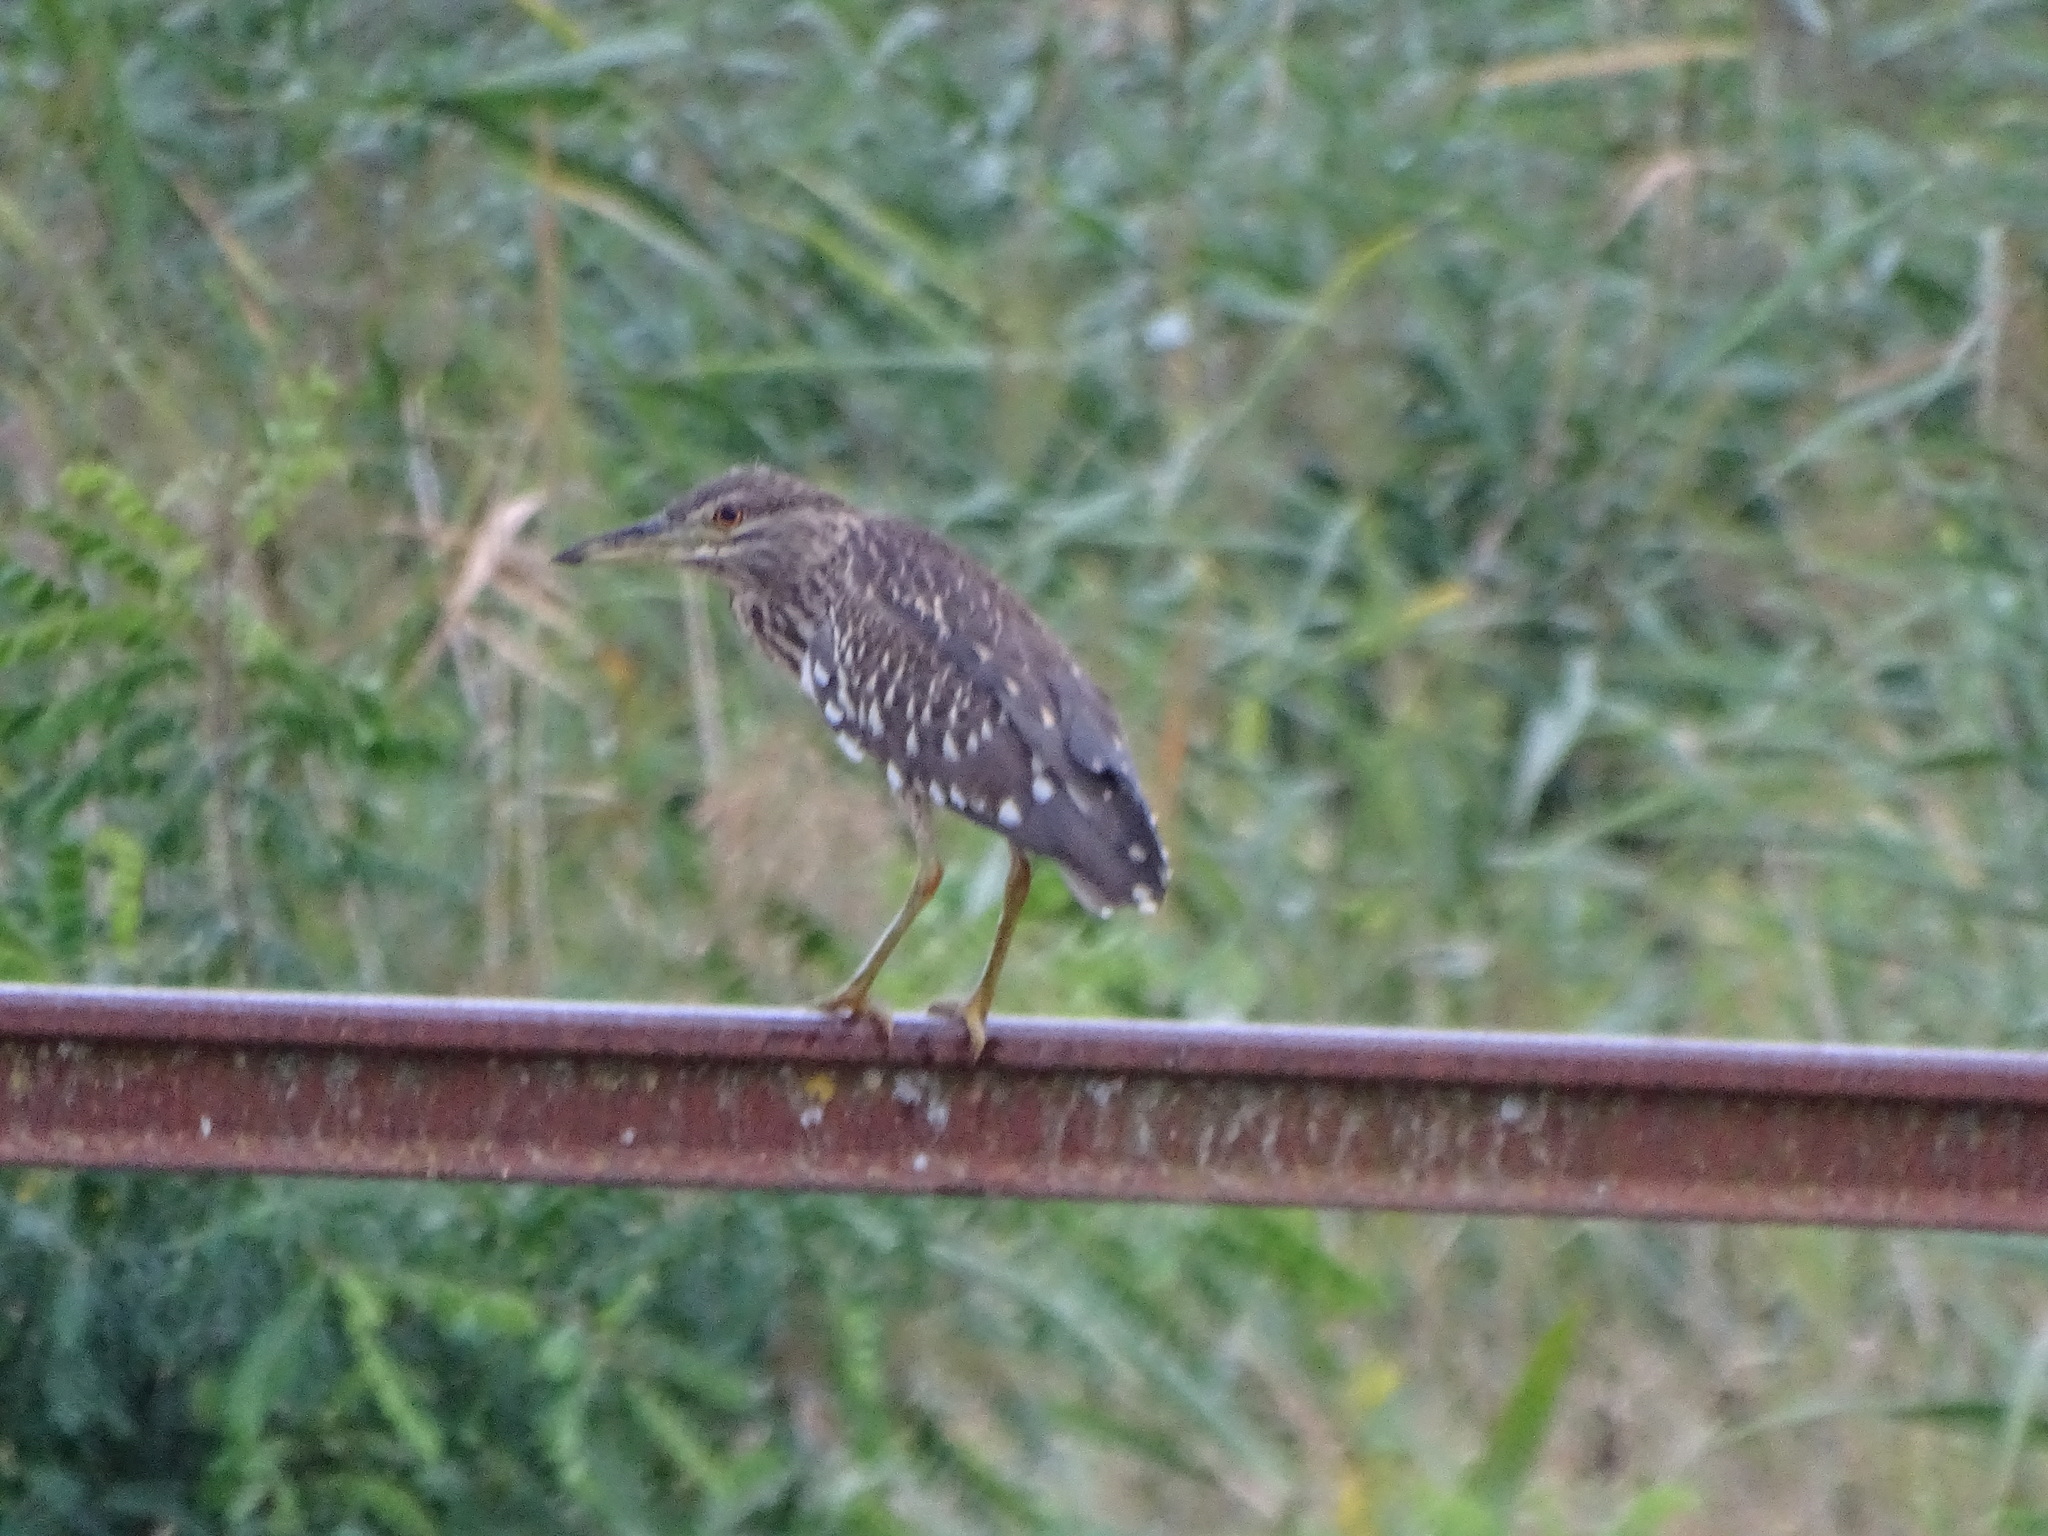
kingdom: Animalia
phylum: Chordata
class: Aves
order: Pelecaniformes
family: Ardeidae
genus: Nycticorax
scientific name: Nycticorax nycticorax
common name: Black-crowned night heron
